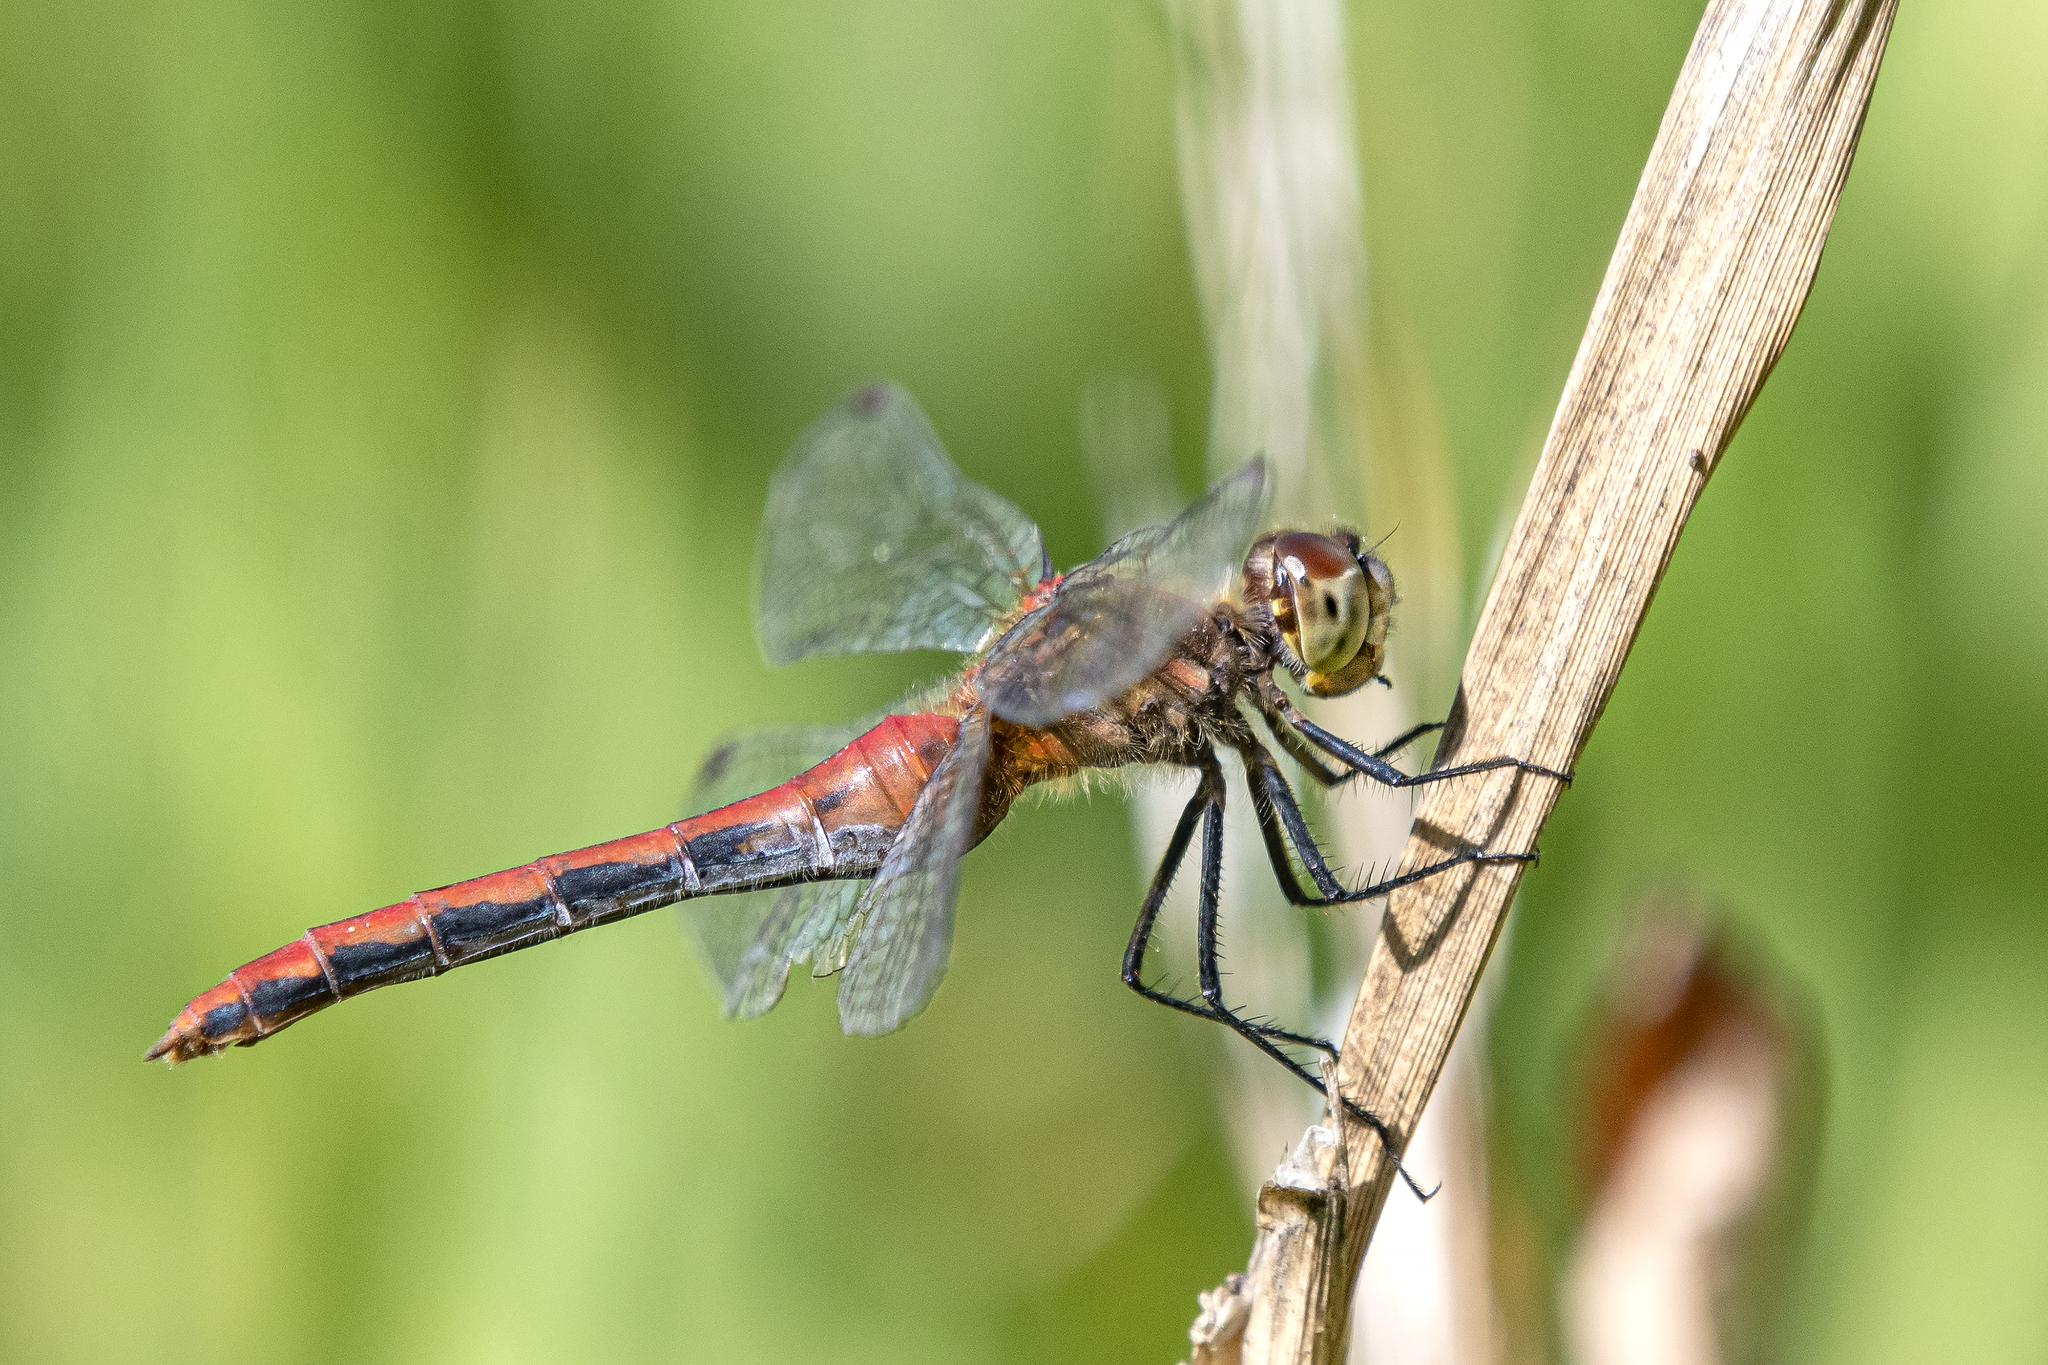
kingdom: Animalia
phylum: Arthropoda
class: Insecta
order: Odonata
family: Libellulidae
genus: Sympetrum
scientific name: Sympetrum obtrusum
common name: White-faced meadowhawk
